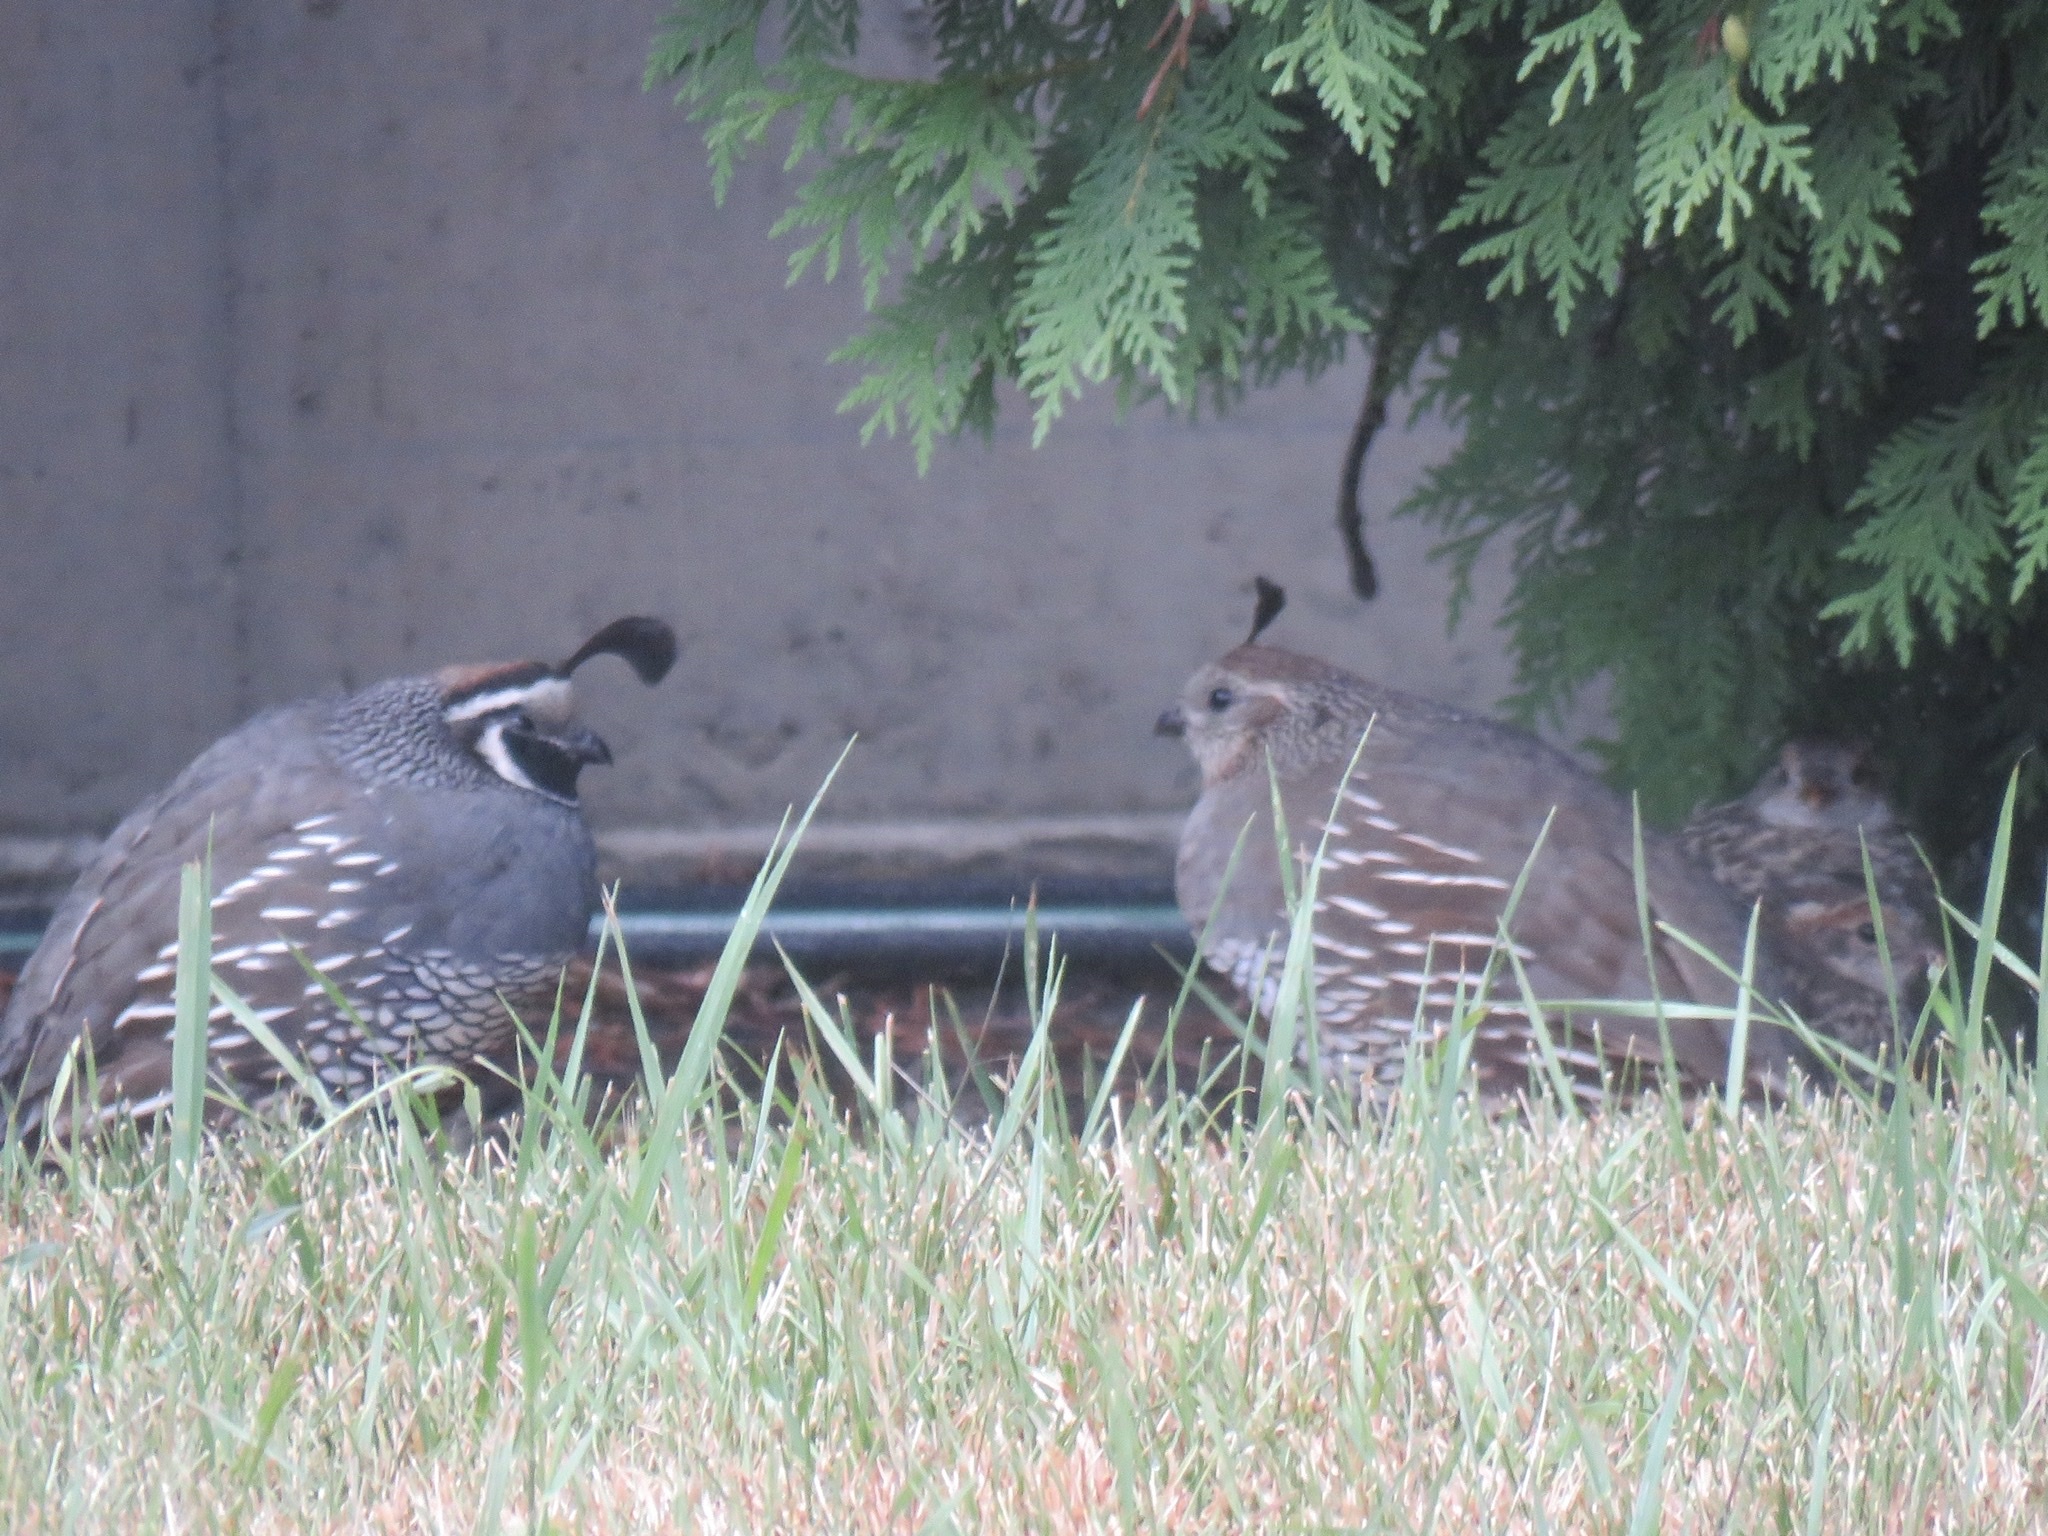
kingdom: Animalia
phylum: Chordata
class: Aves
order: Galliformes
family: Odontophoridae
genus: Callipepla
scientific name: Callipepla californica
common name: California quail
